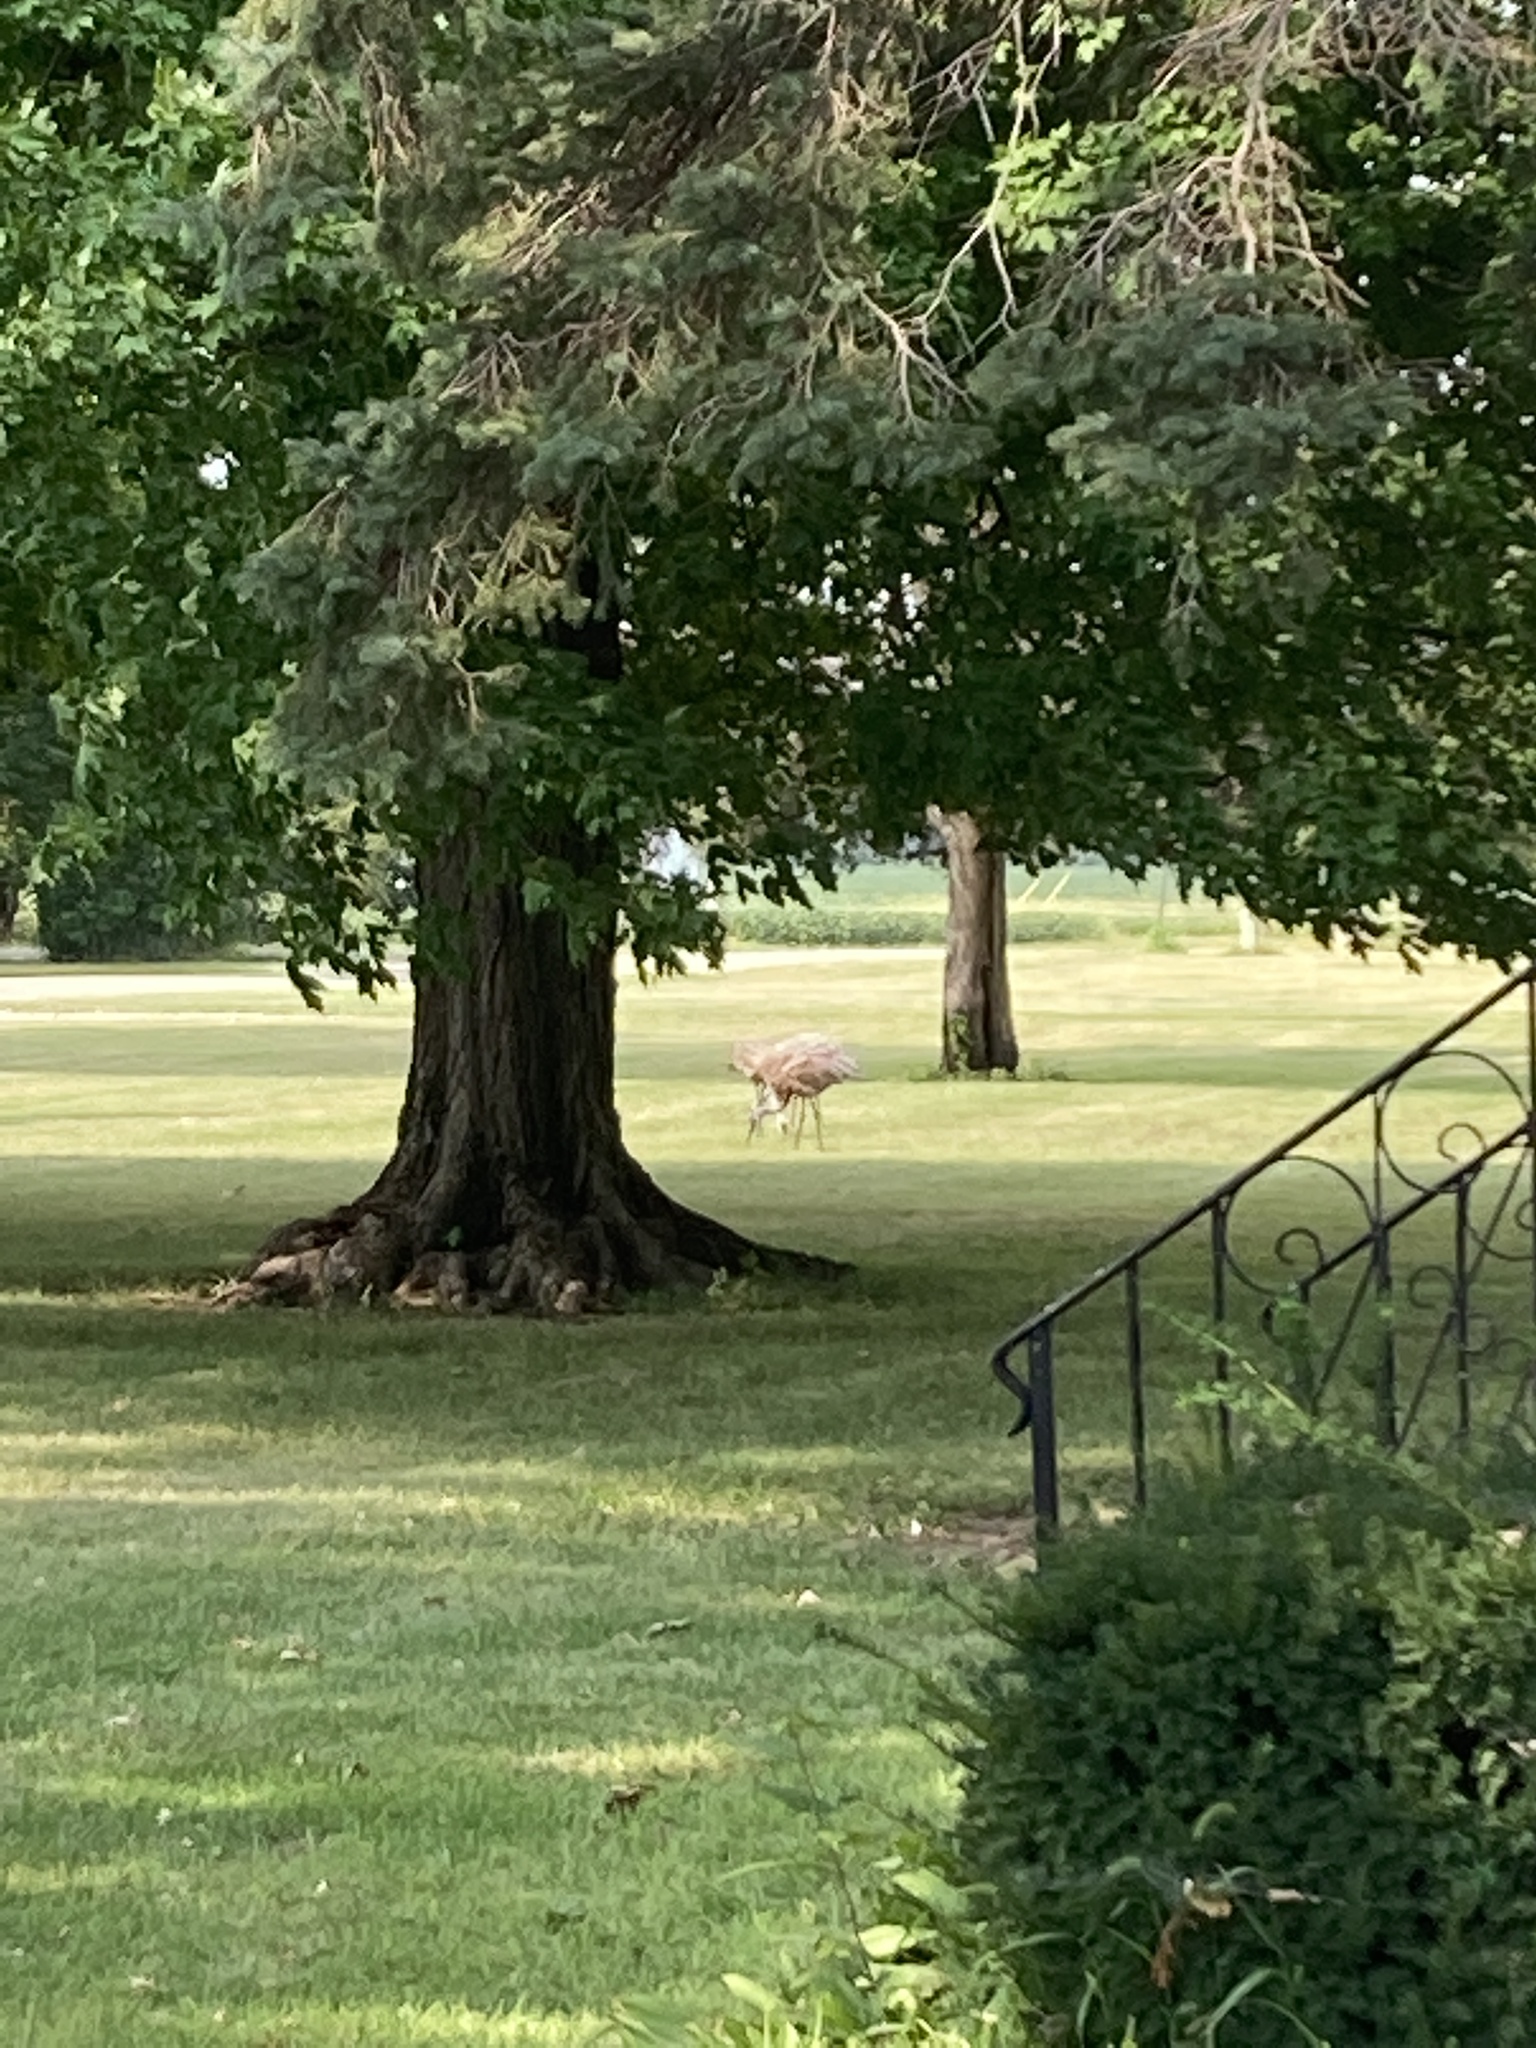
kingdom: Animalia
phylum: Chordata
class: Aves
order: Gruiformes
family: Gruidae
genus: Grus
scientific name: Grus canadensis
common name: Sandhill crane
